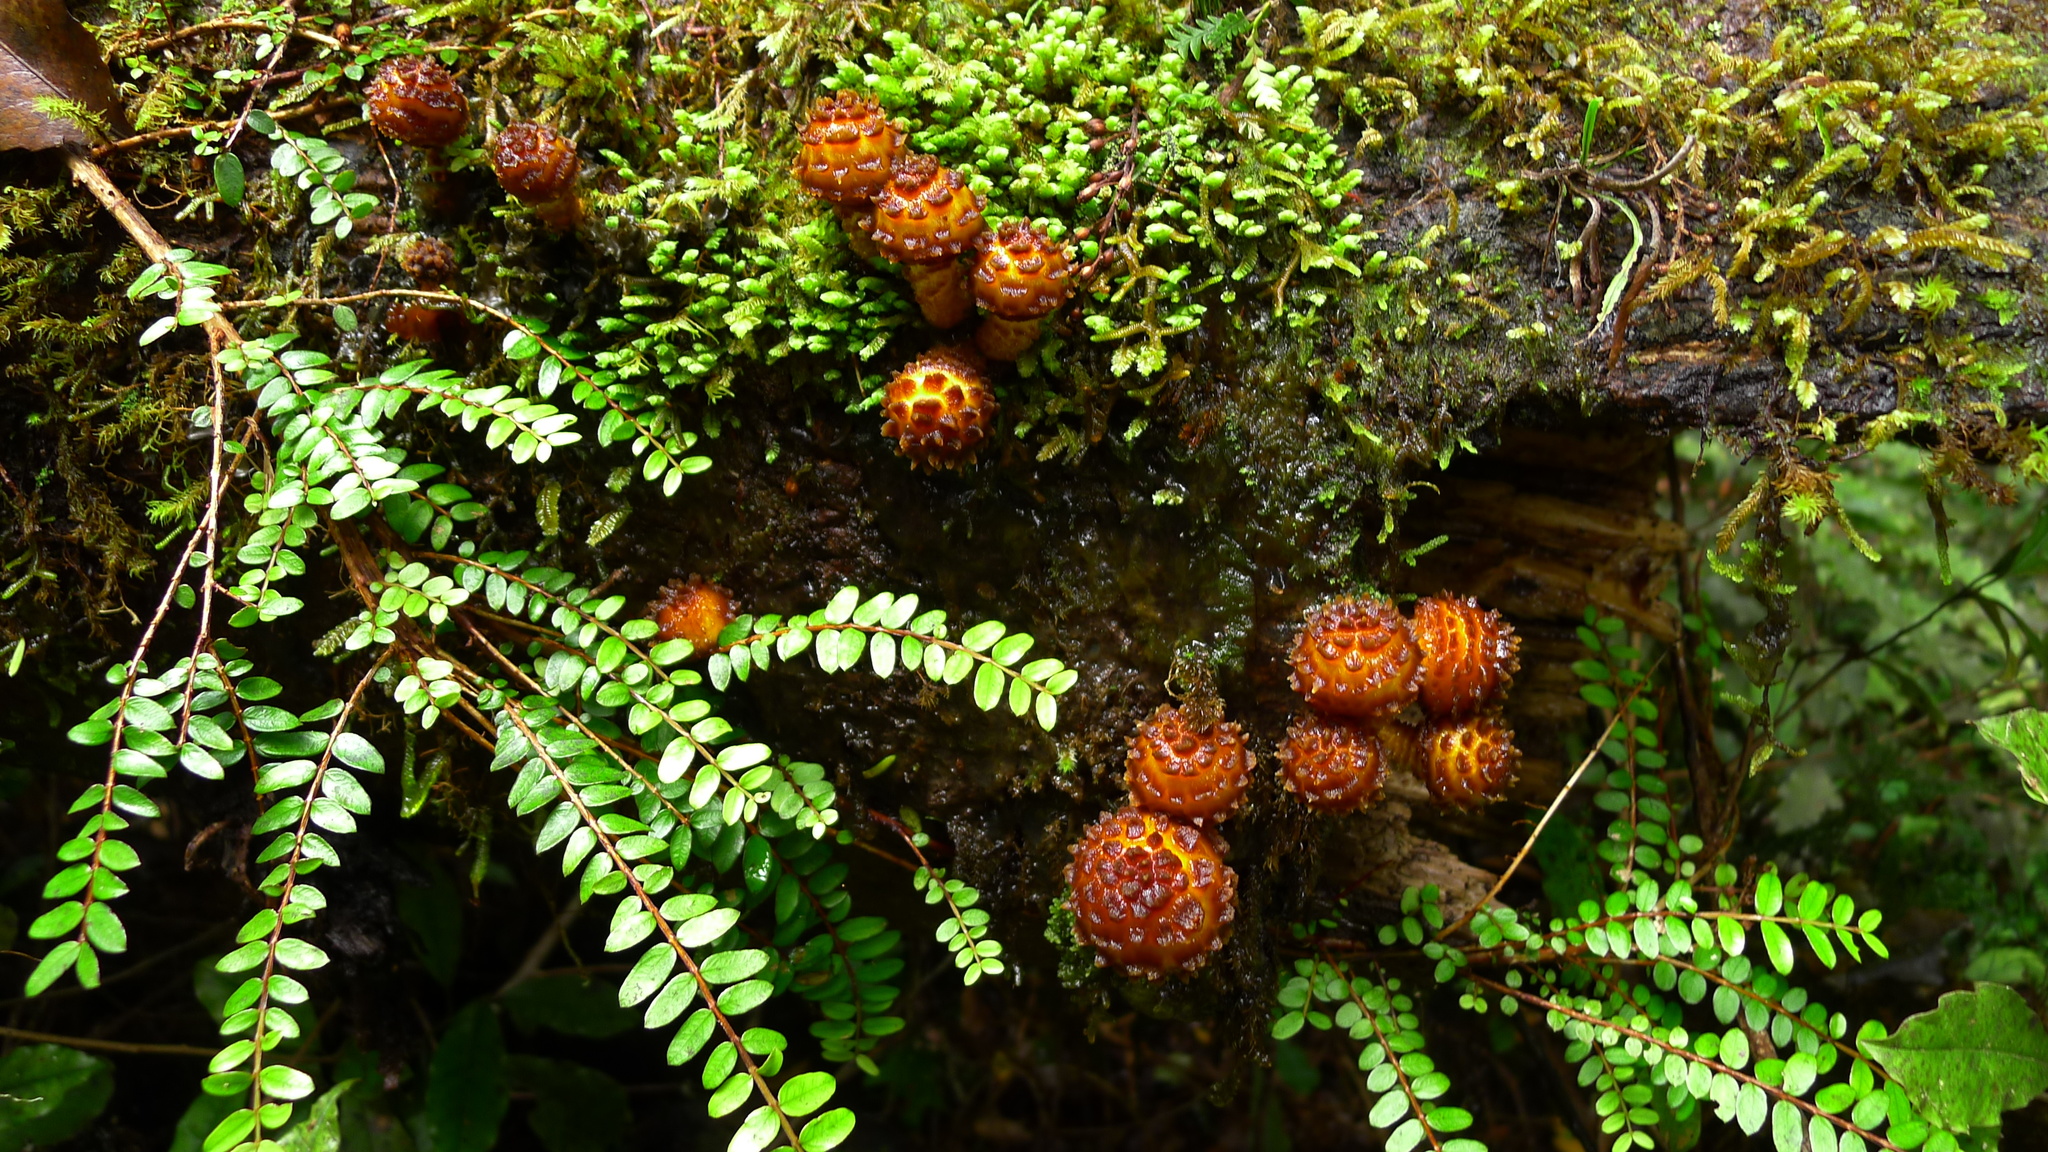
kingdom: Fungi
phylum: Basidiomycota
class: Agaricomycetes
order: Agaricales
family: Strophariaceae
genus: Pholiota
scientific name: Pholiota glutinosa
